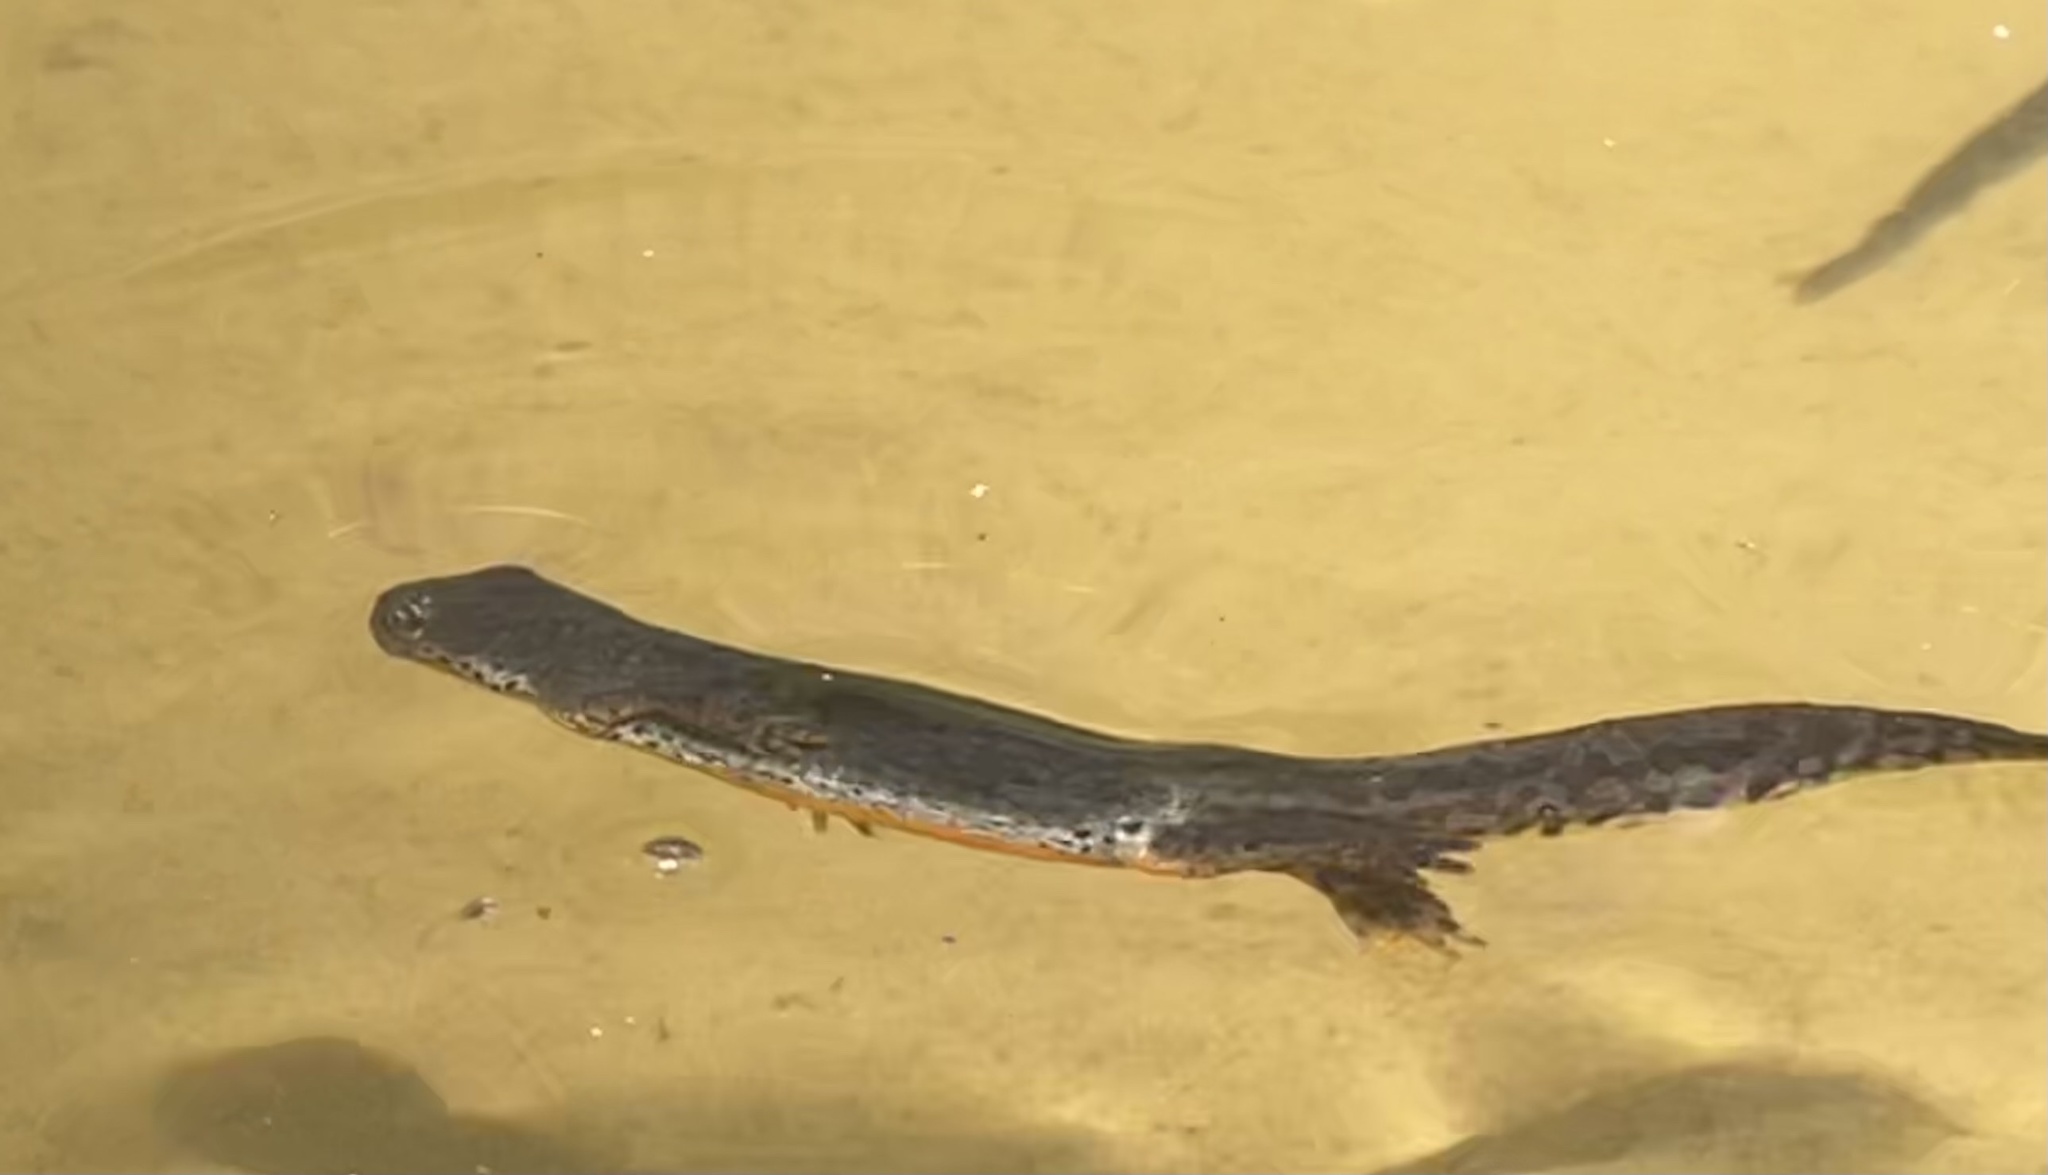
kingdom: Animalia
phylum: Chordata
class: Amphibia
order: Caudata
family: Salamandridae
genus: Ichthyosaura
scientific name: Ichthyosaura alpestris
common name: Alpine newt
